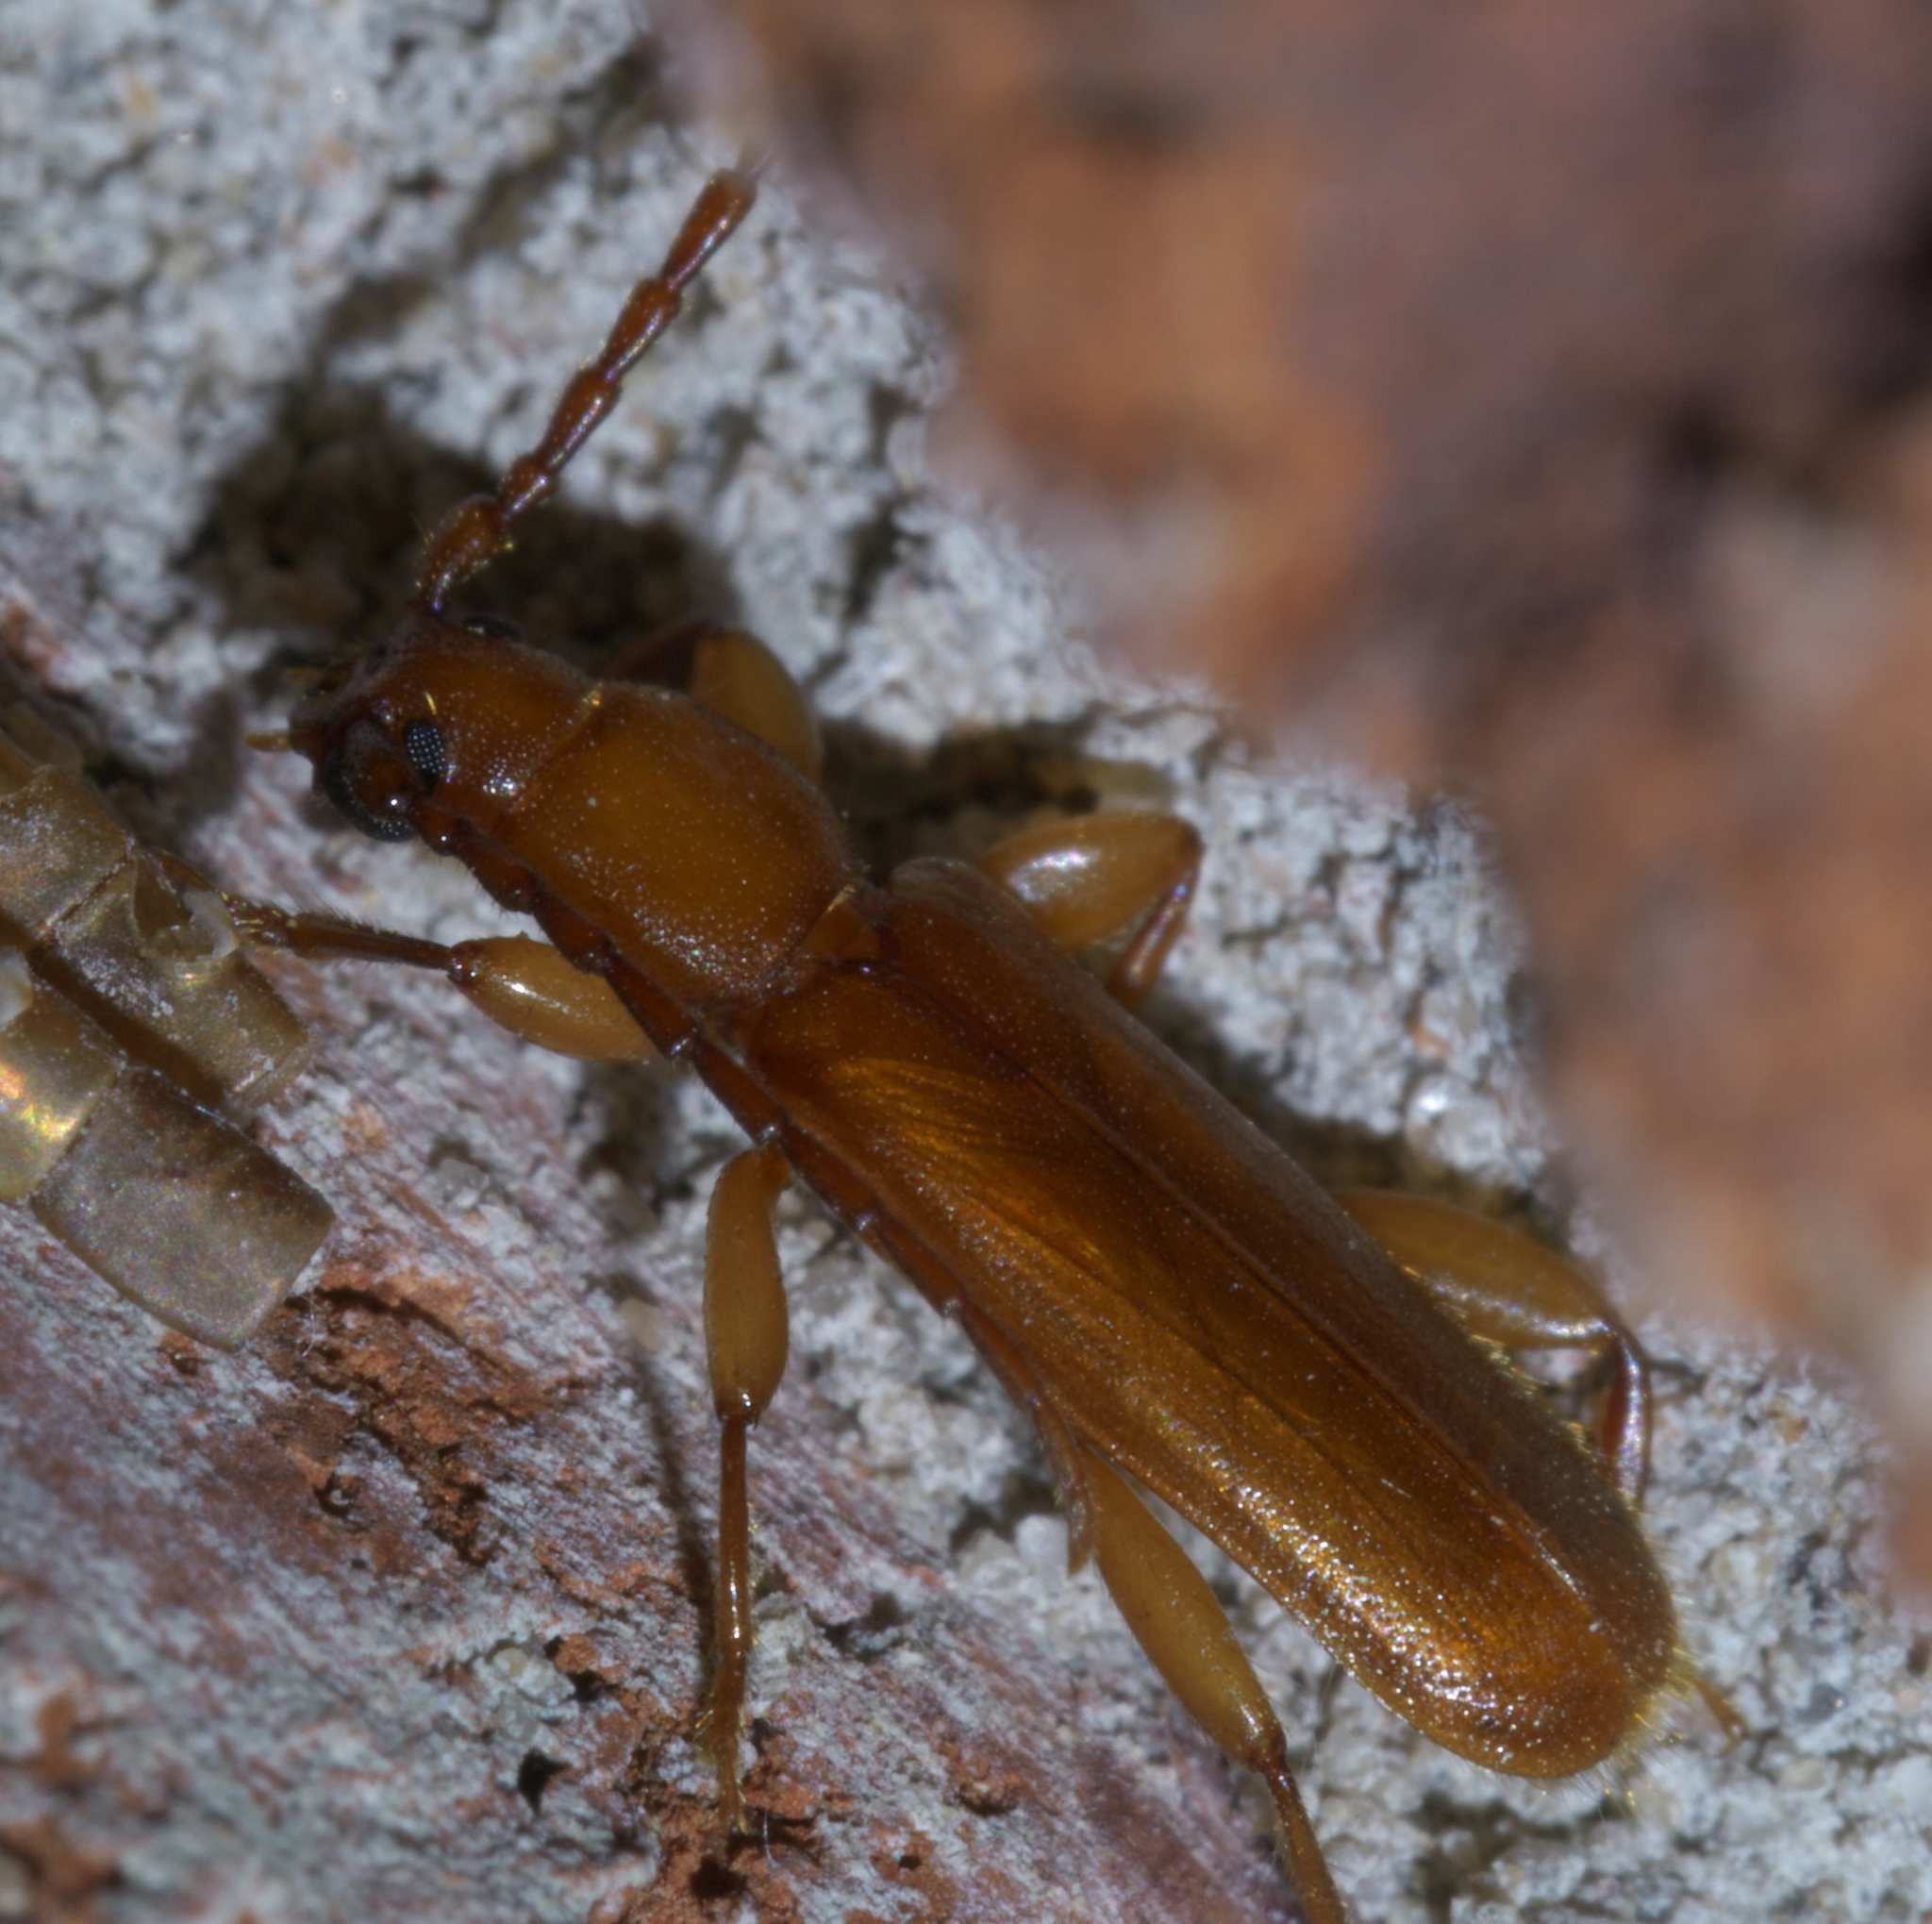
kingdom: Animalia
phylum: Arthropoda
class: Insecta
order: Coleoptera
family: Cerambycidae
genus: Smodicum
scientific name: Smodicum cucujiforme
